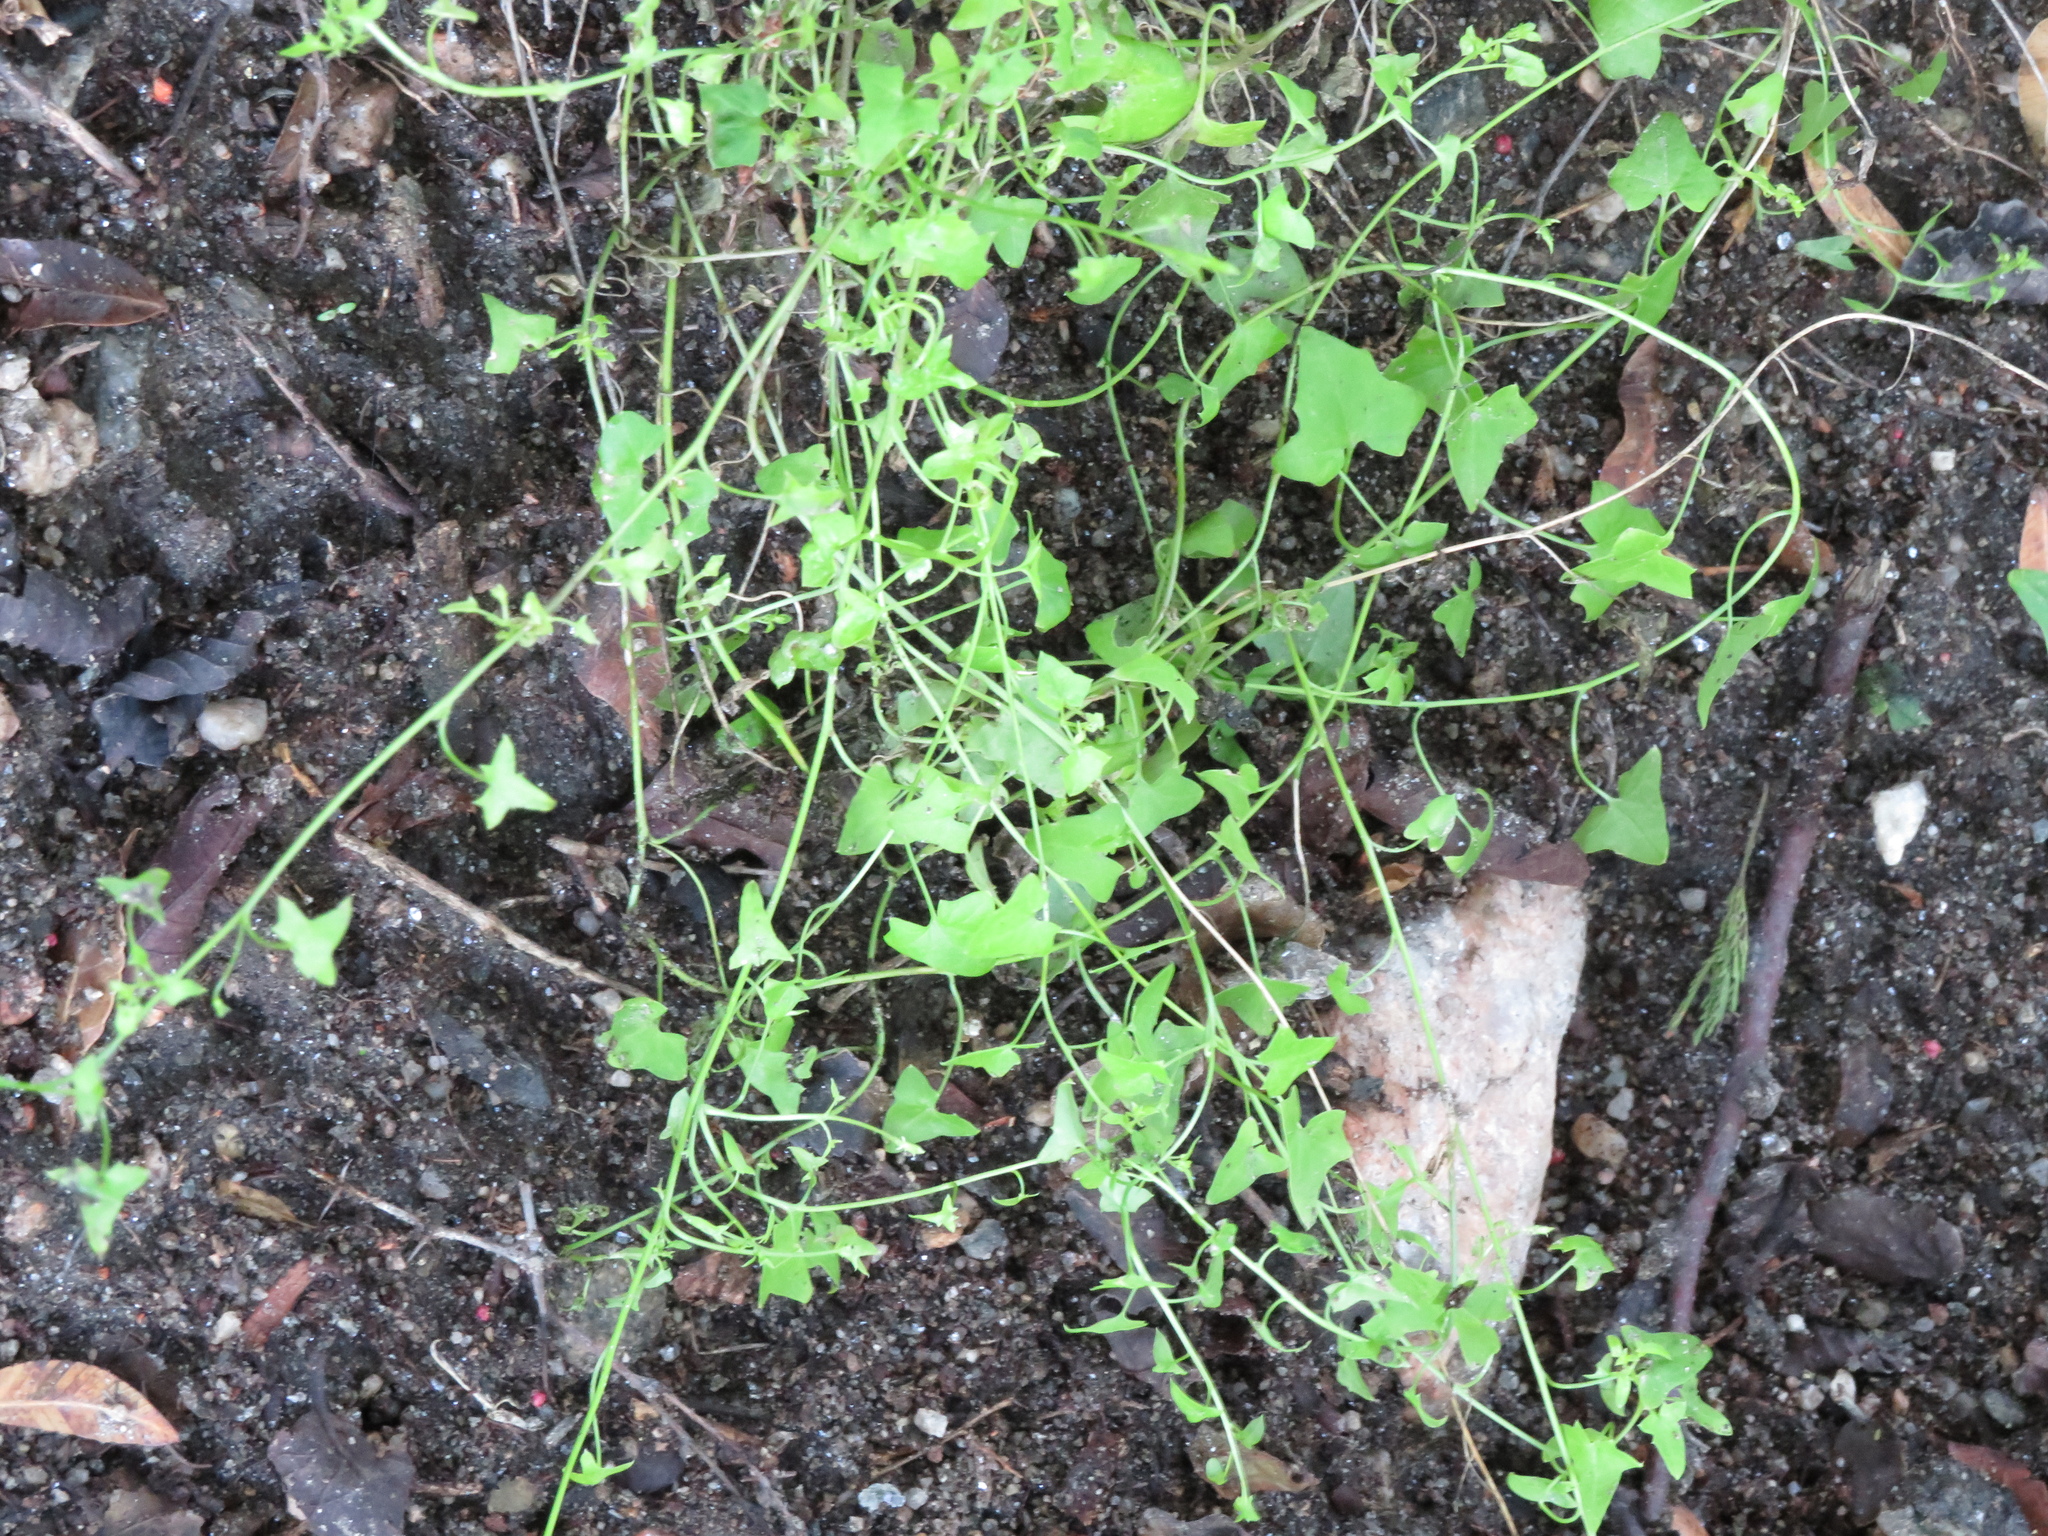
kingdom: Plantae
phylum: Tracheophyta
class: Magnoliopsida
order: Lamiales
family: Plantaginaceae
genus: Maurandella
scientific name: Maurandella antirrhiniflora
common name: Violet twining-snapdragon
